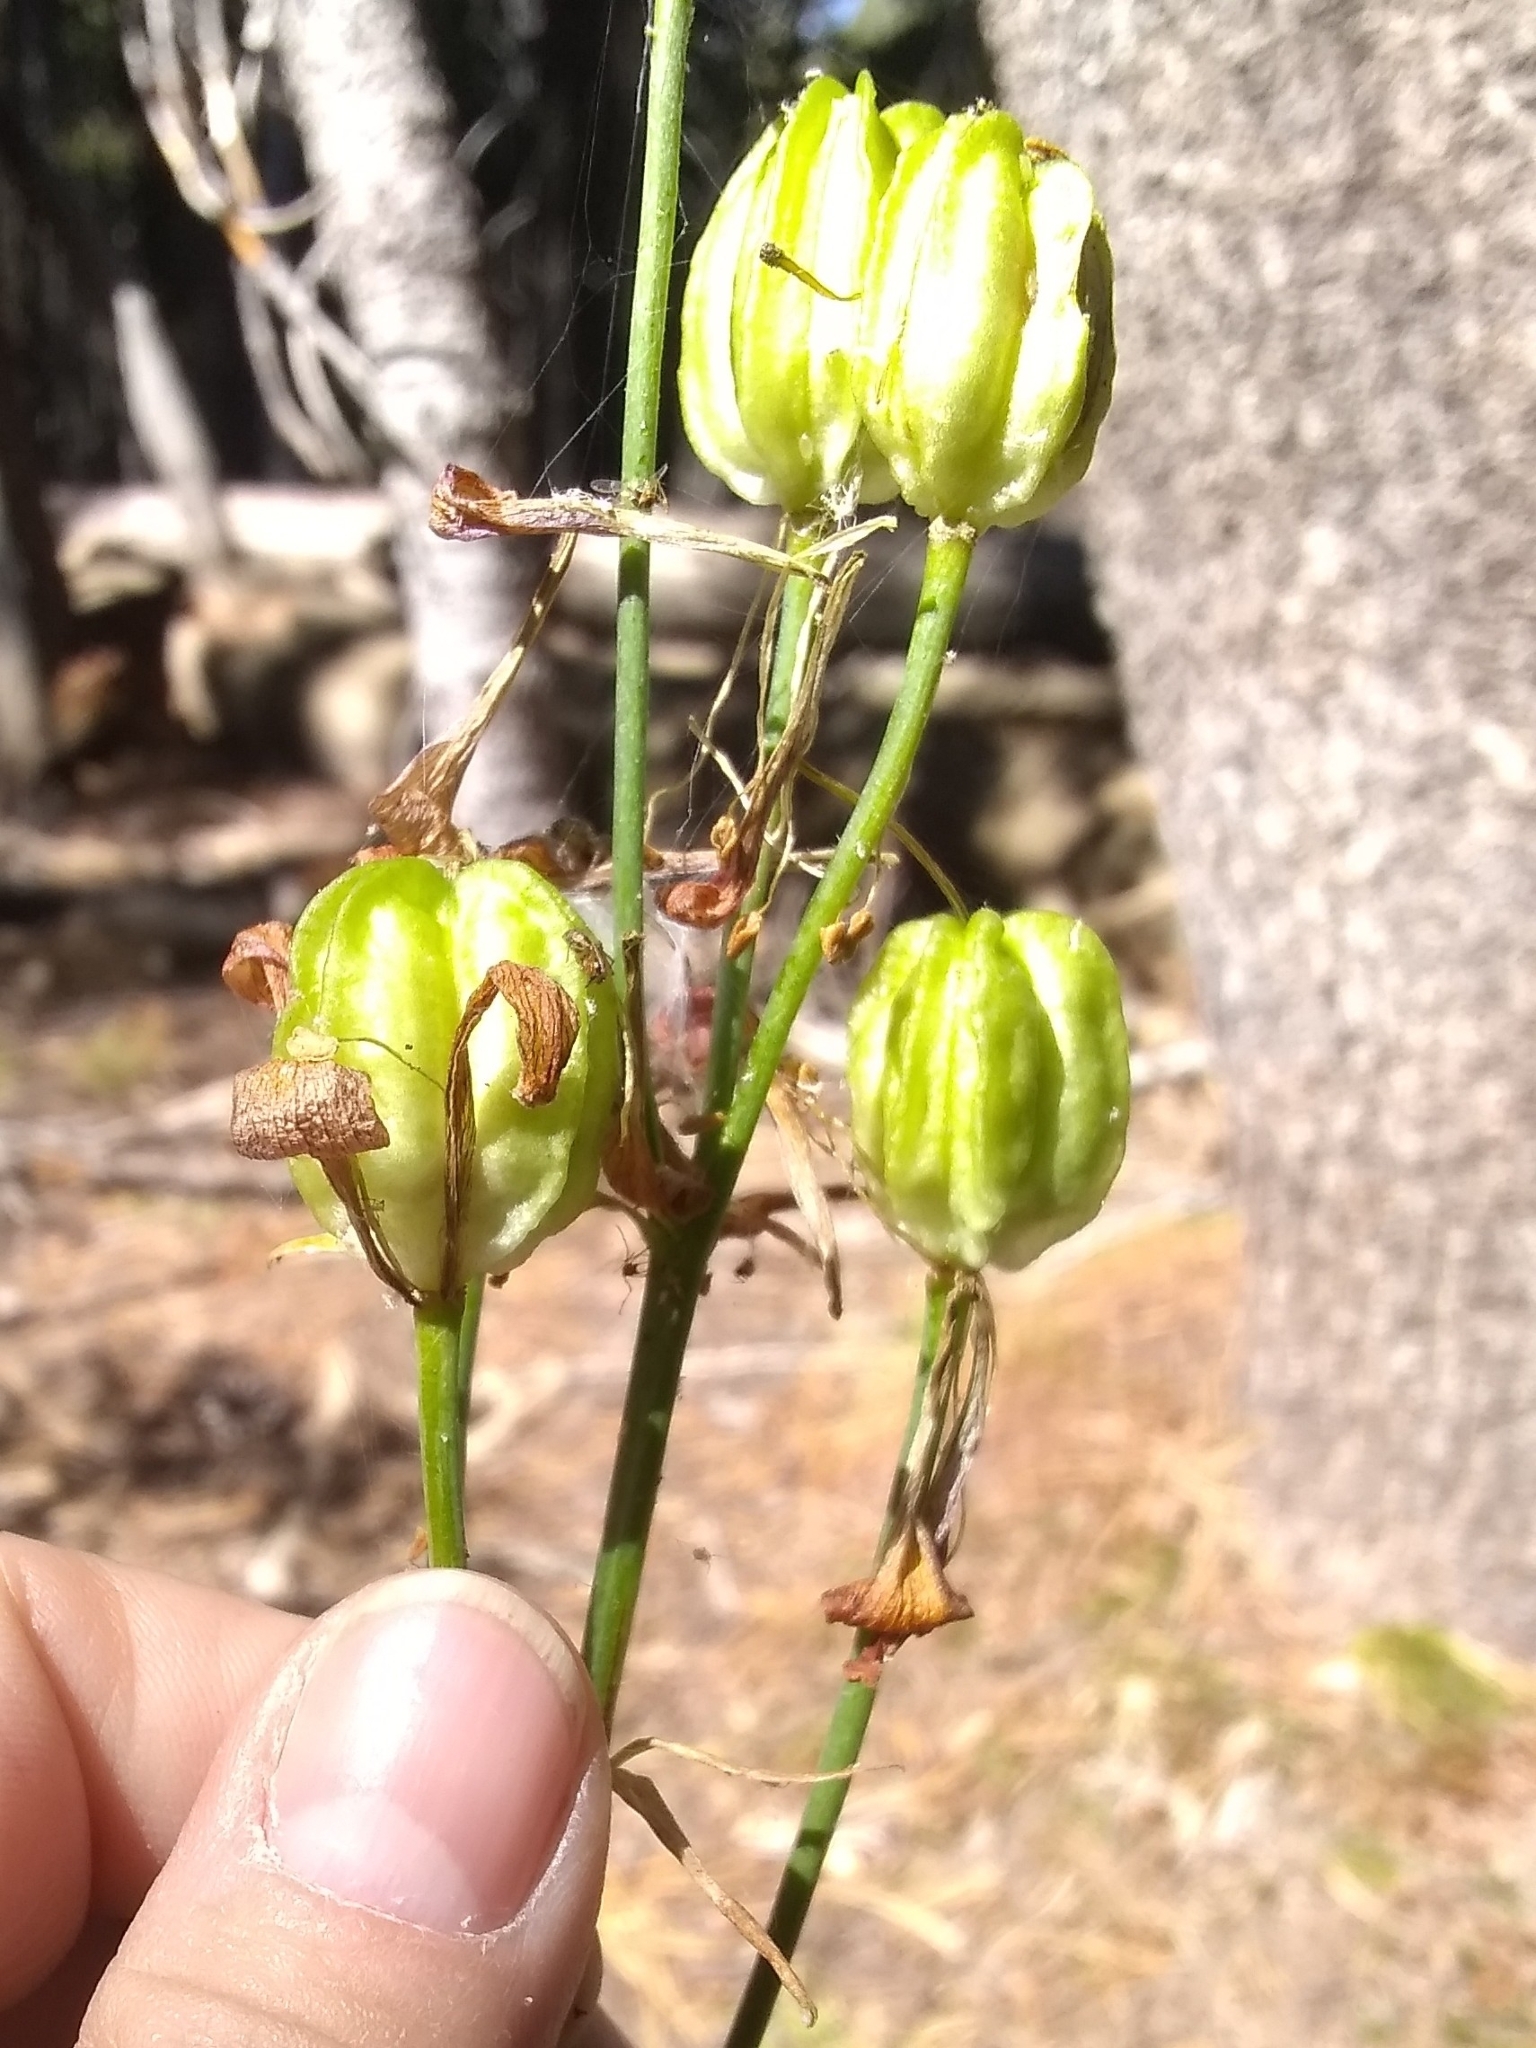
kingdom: Plantae
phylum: Tracheophyta
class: Liliopsida
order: Liliales
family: Liliaceae
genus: Lilium
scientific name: Lilium parvum
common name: Alpine lily
